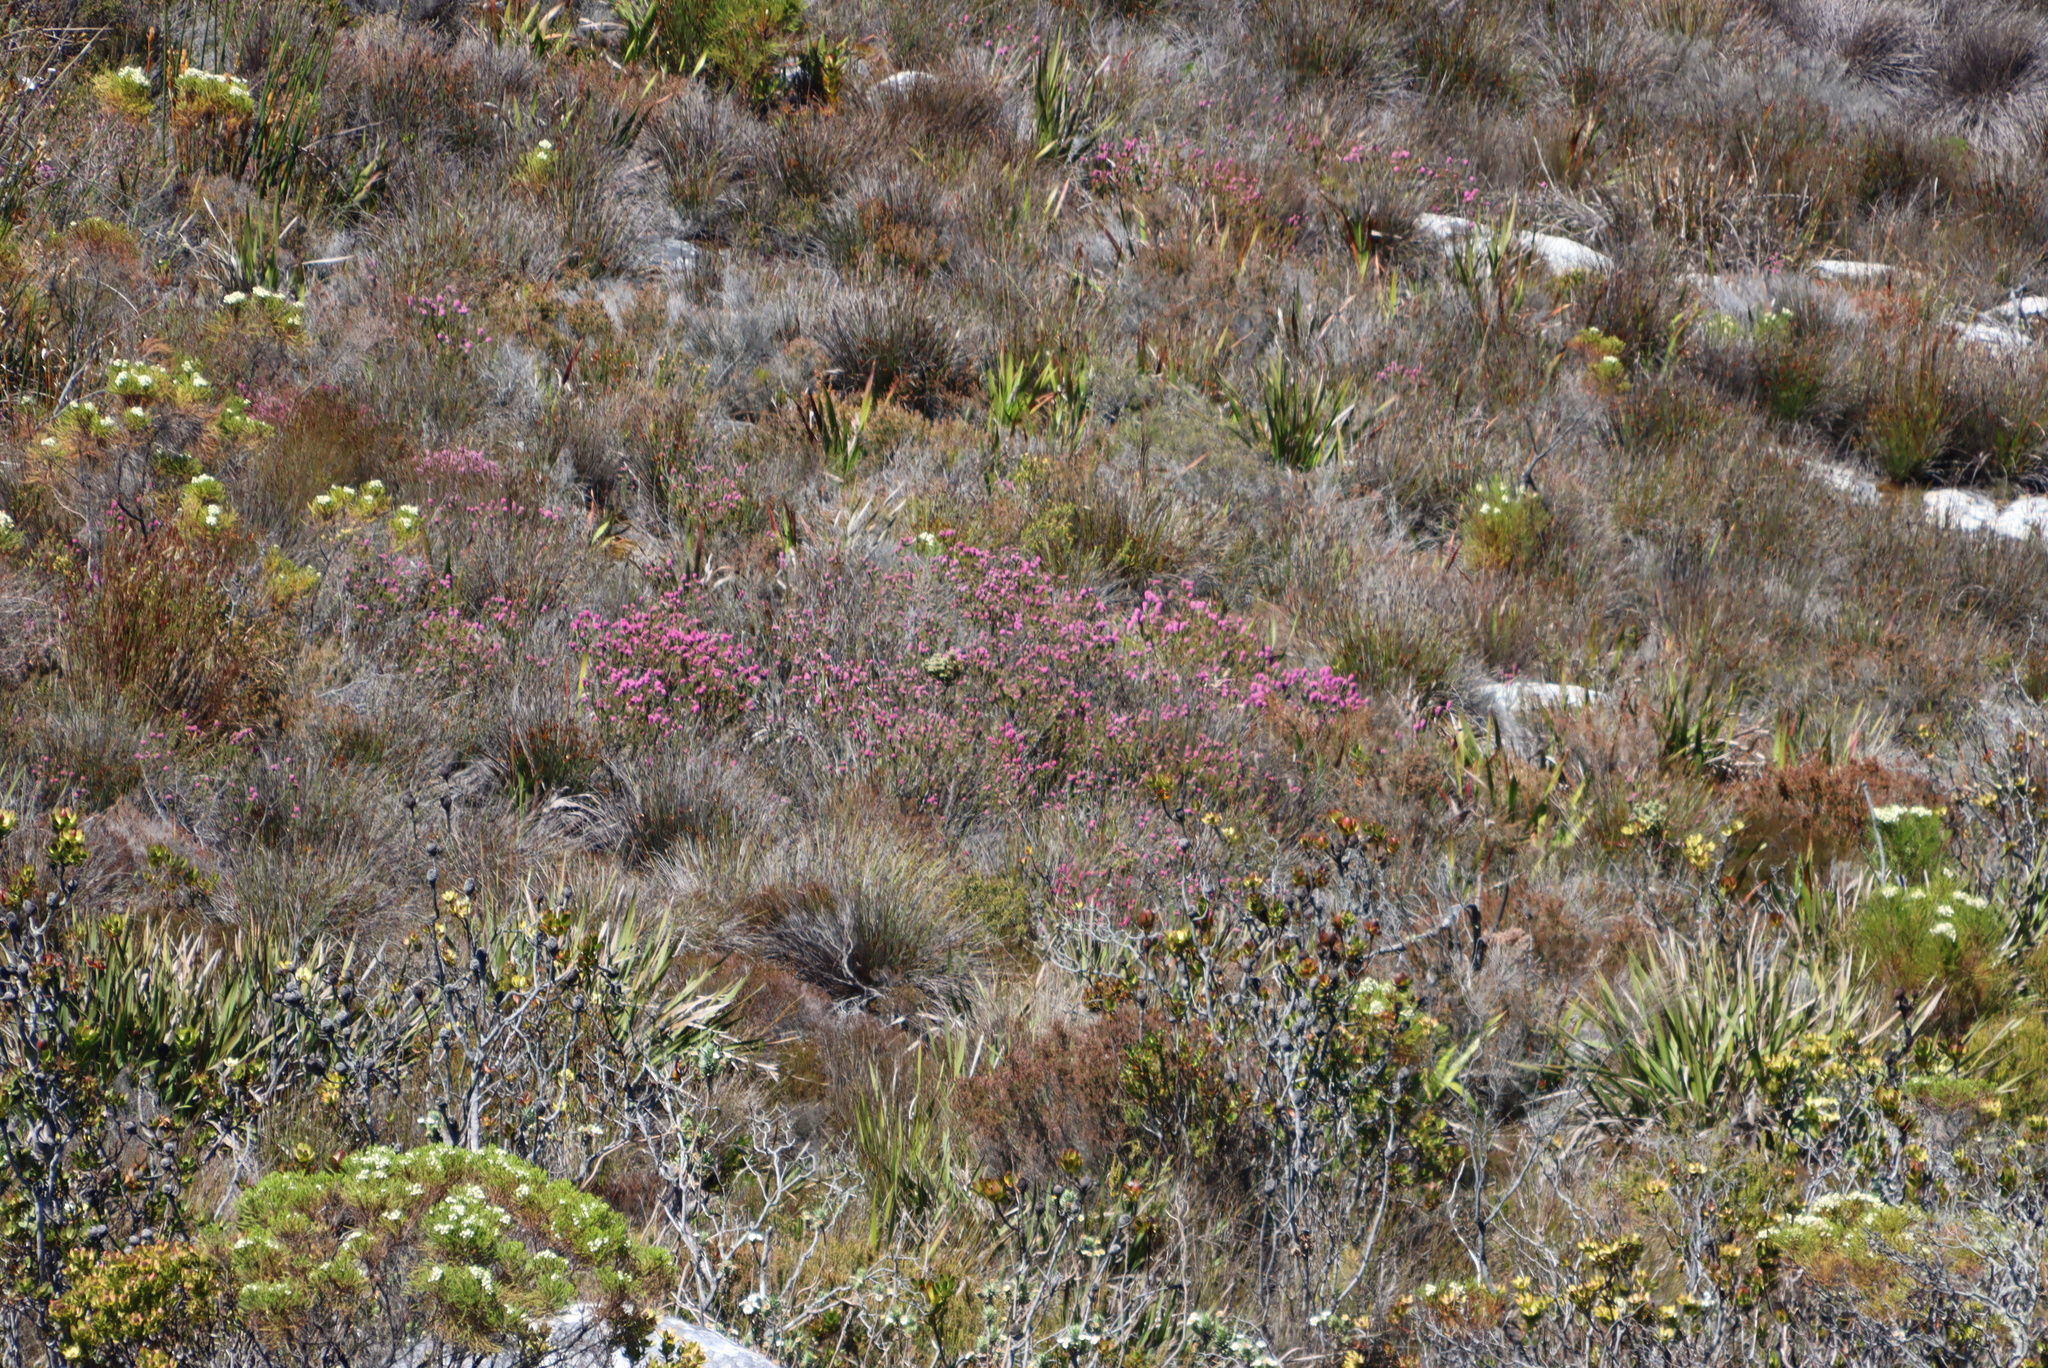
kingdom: Plantae
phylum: Tracheophyta
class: Magnoliopsida
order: Ericales
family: Ericaceae
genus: Erica
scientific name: Erica empetrina
